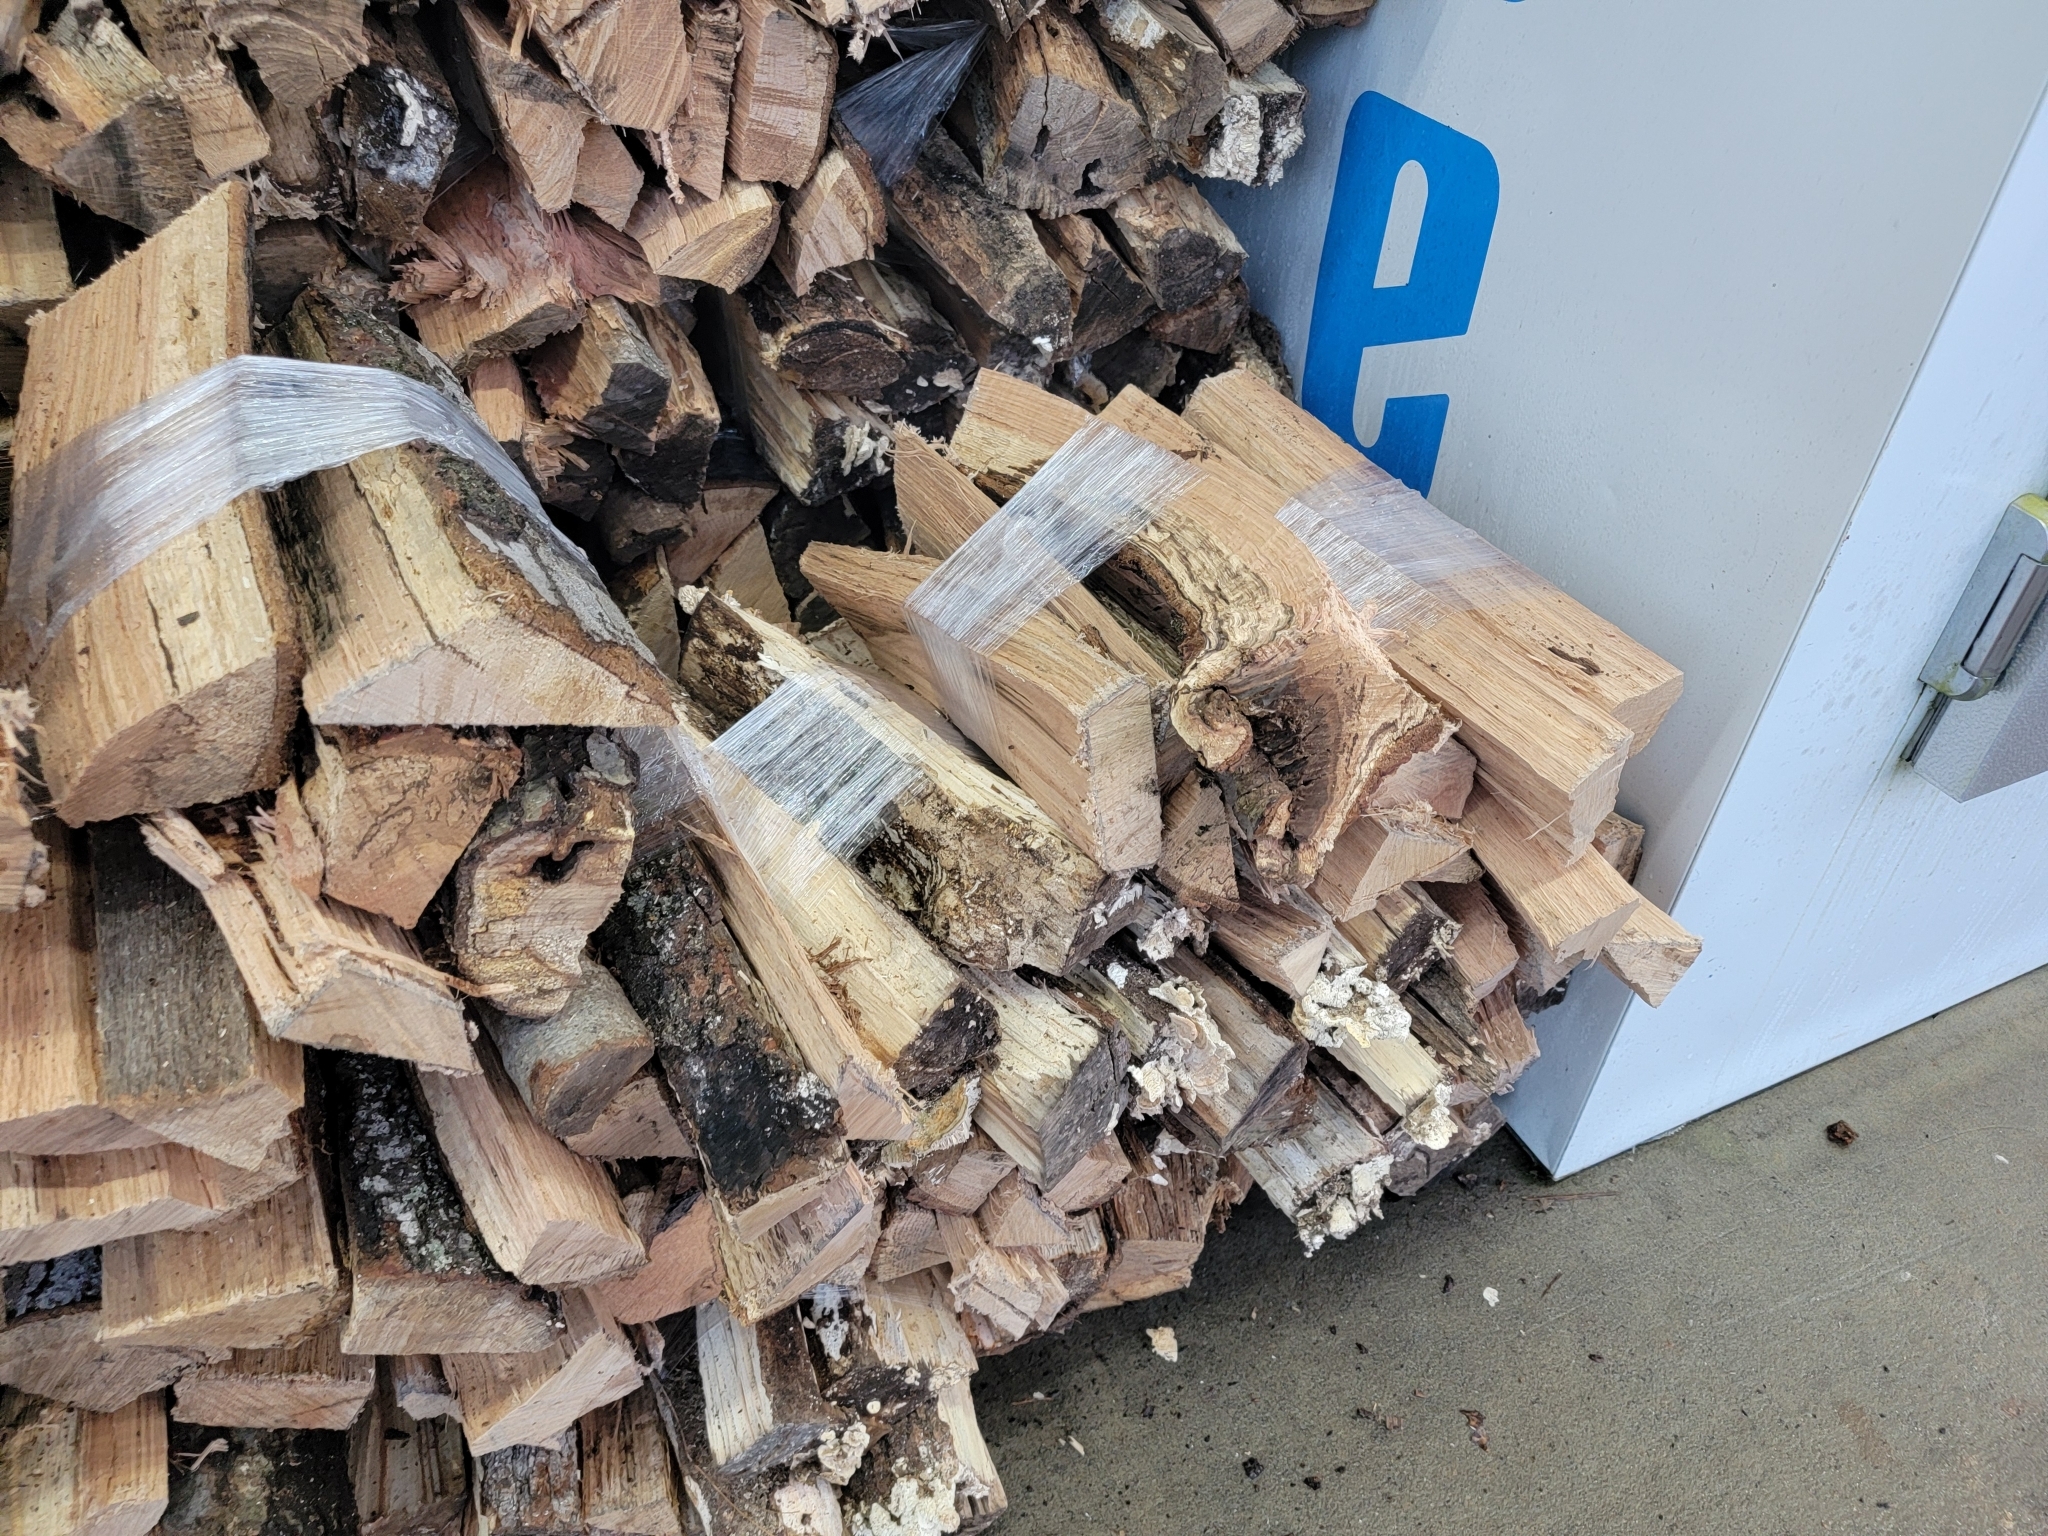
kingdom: Fungi
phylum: Basidiomycota
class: Agaricomycetes
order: Polyporales
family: Polyporaceae
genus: Lenzites
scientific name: Lenzites betulinus
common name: Birch mazegill
